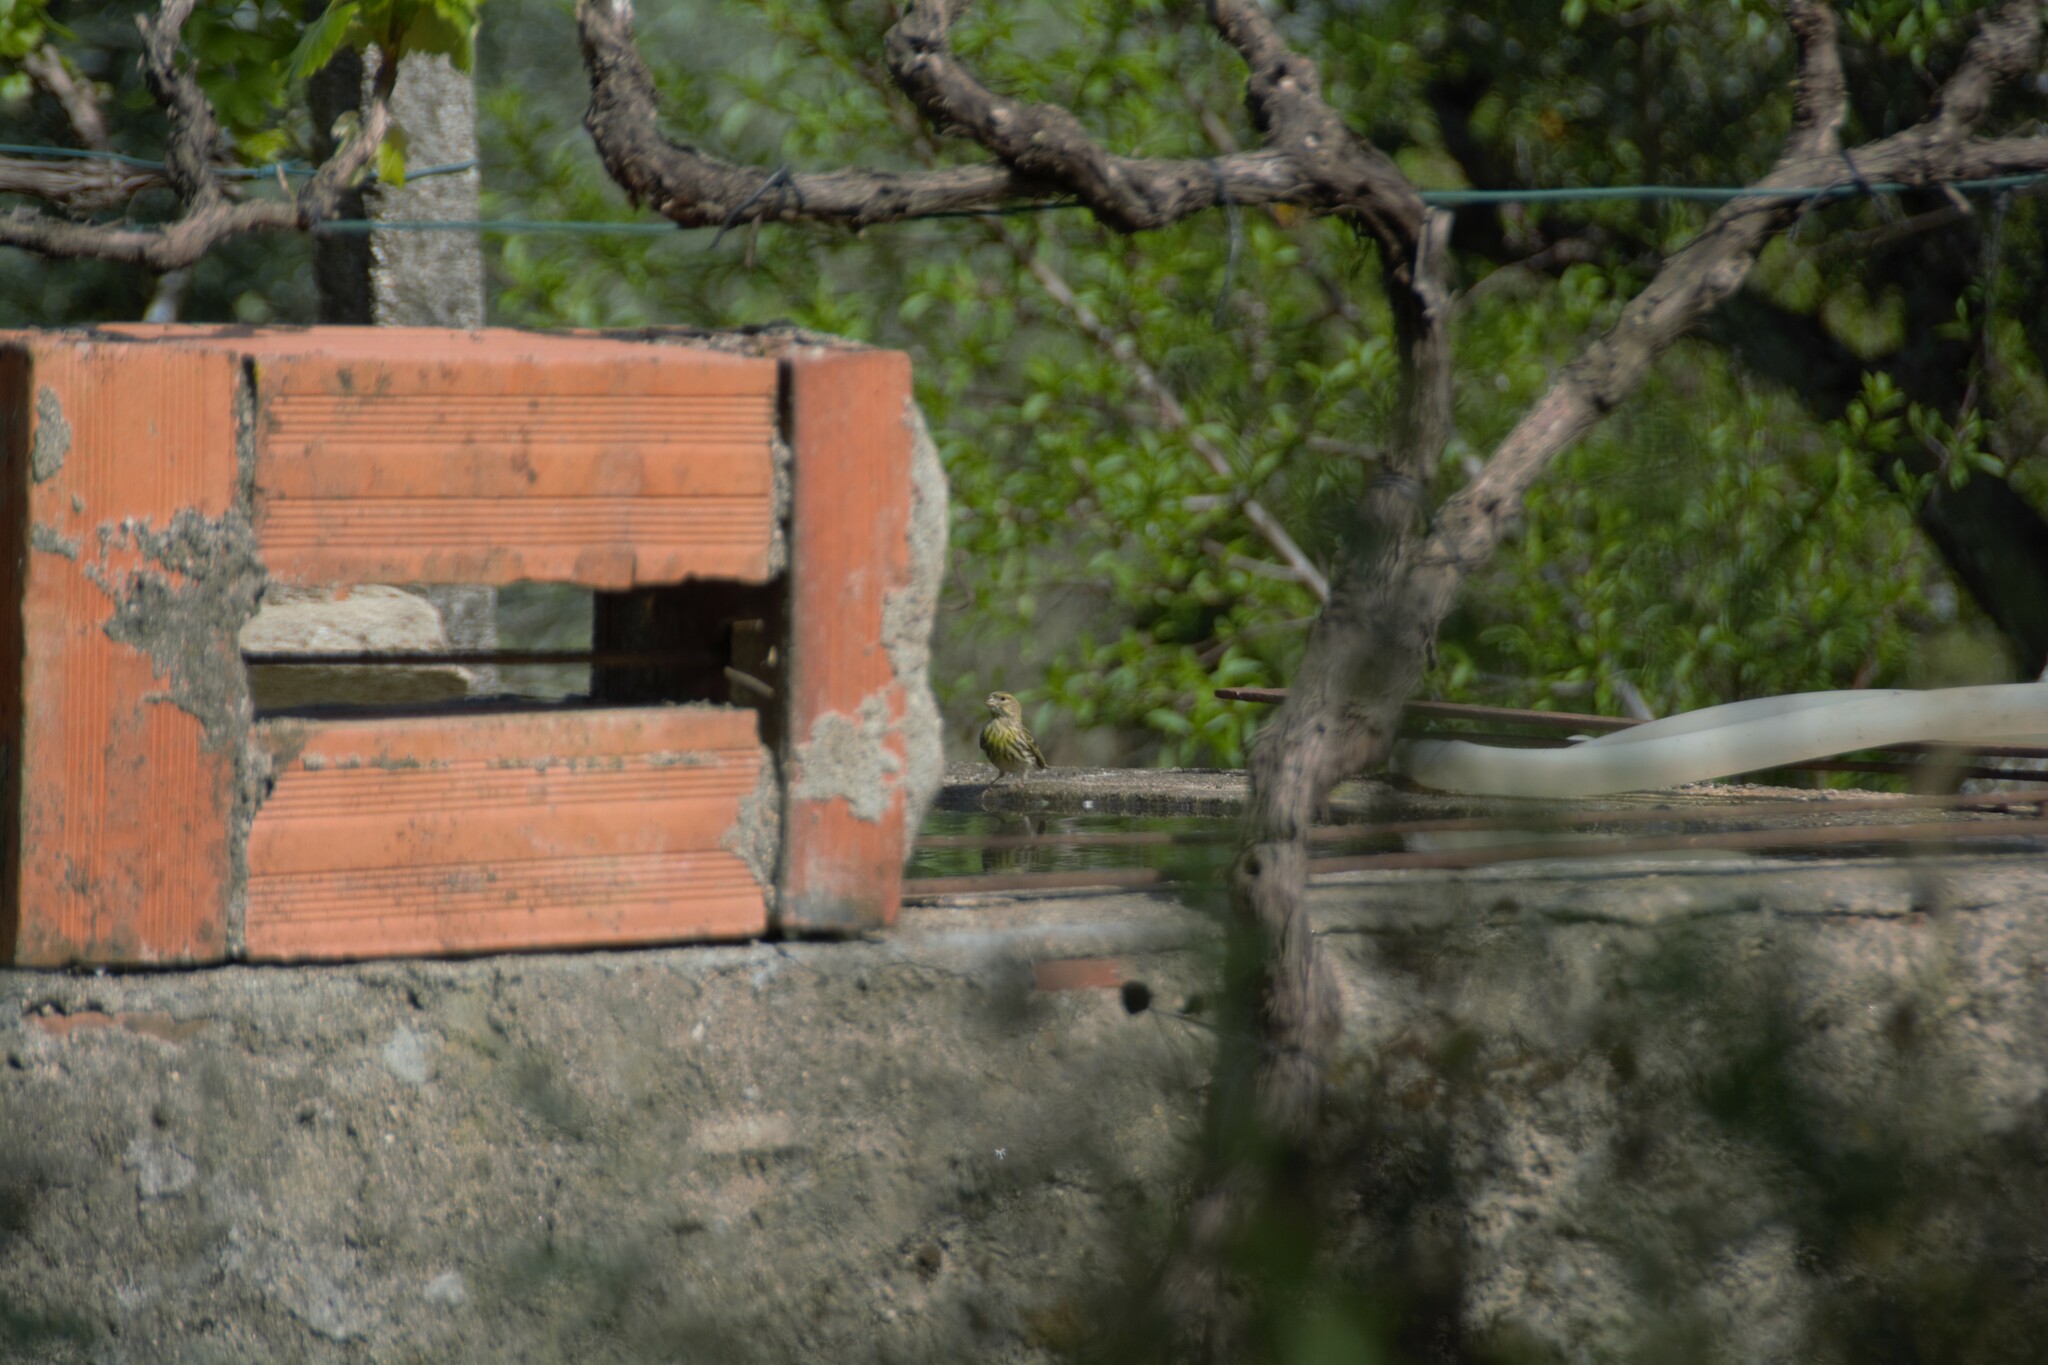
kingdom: Animalia
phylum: Chordata
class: Aves
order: Passeriformes
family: Fringillidae
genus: Serinus
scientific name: Serinus serinus
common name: European serin
